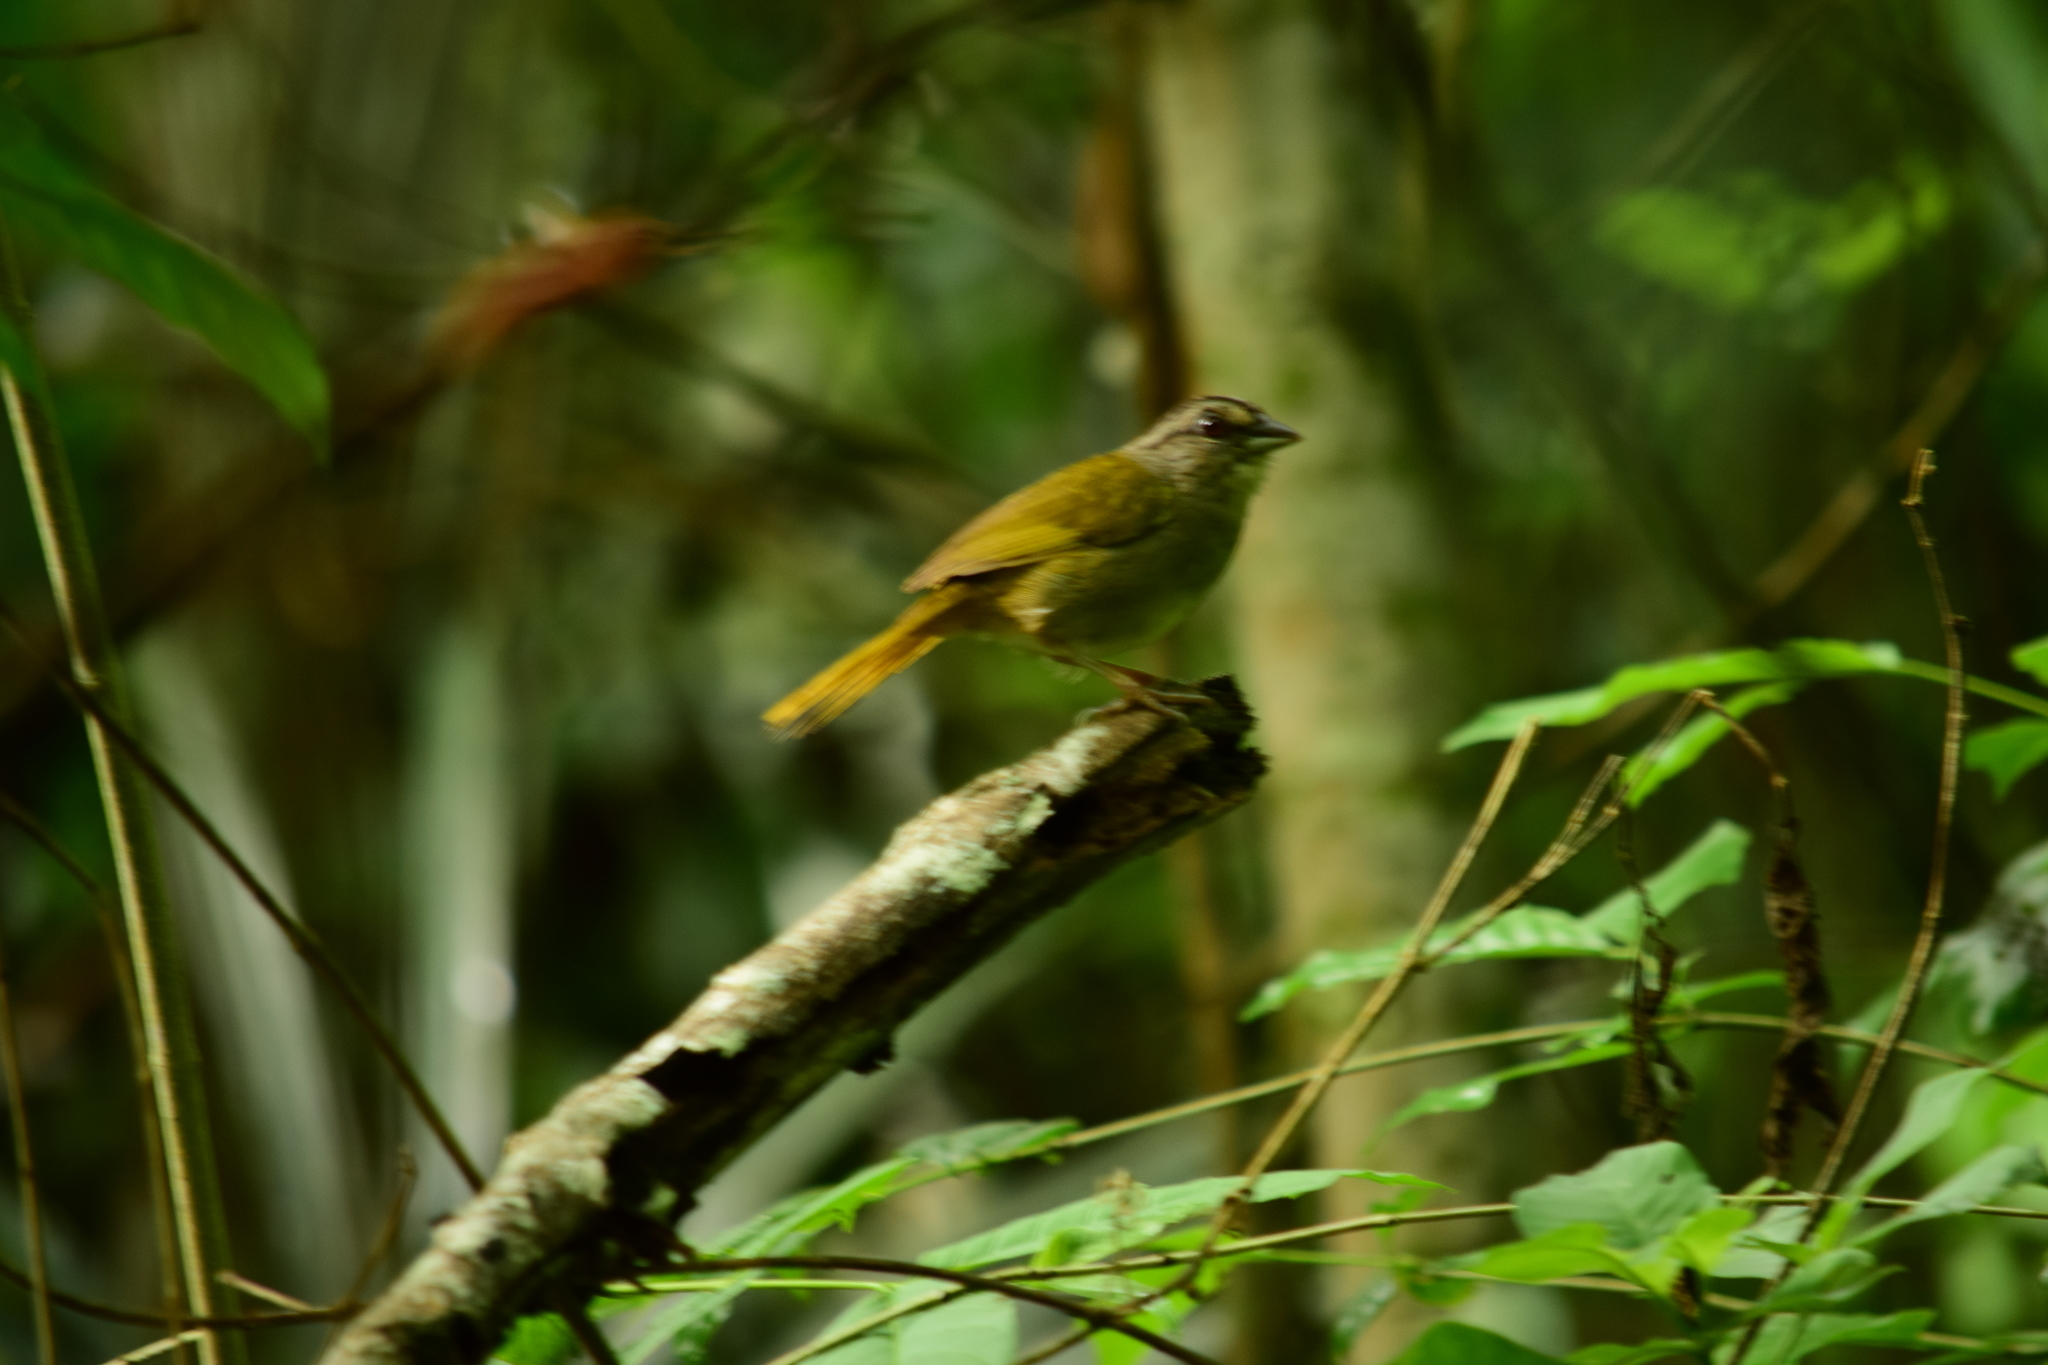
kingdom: Animalia
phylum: Chordata
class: Aves
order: Passeriformes
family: Passerellidae
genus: Arremonops
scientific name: Arremonops rufivirgatus
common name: Olive sparrow
